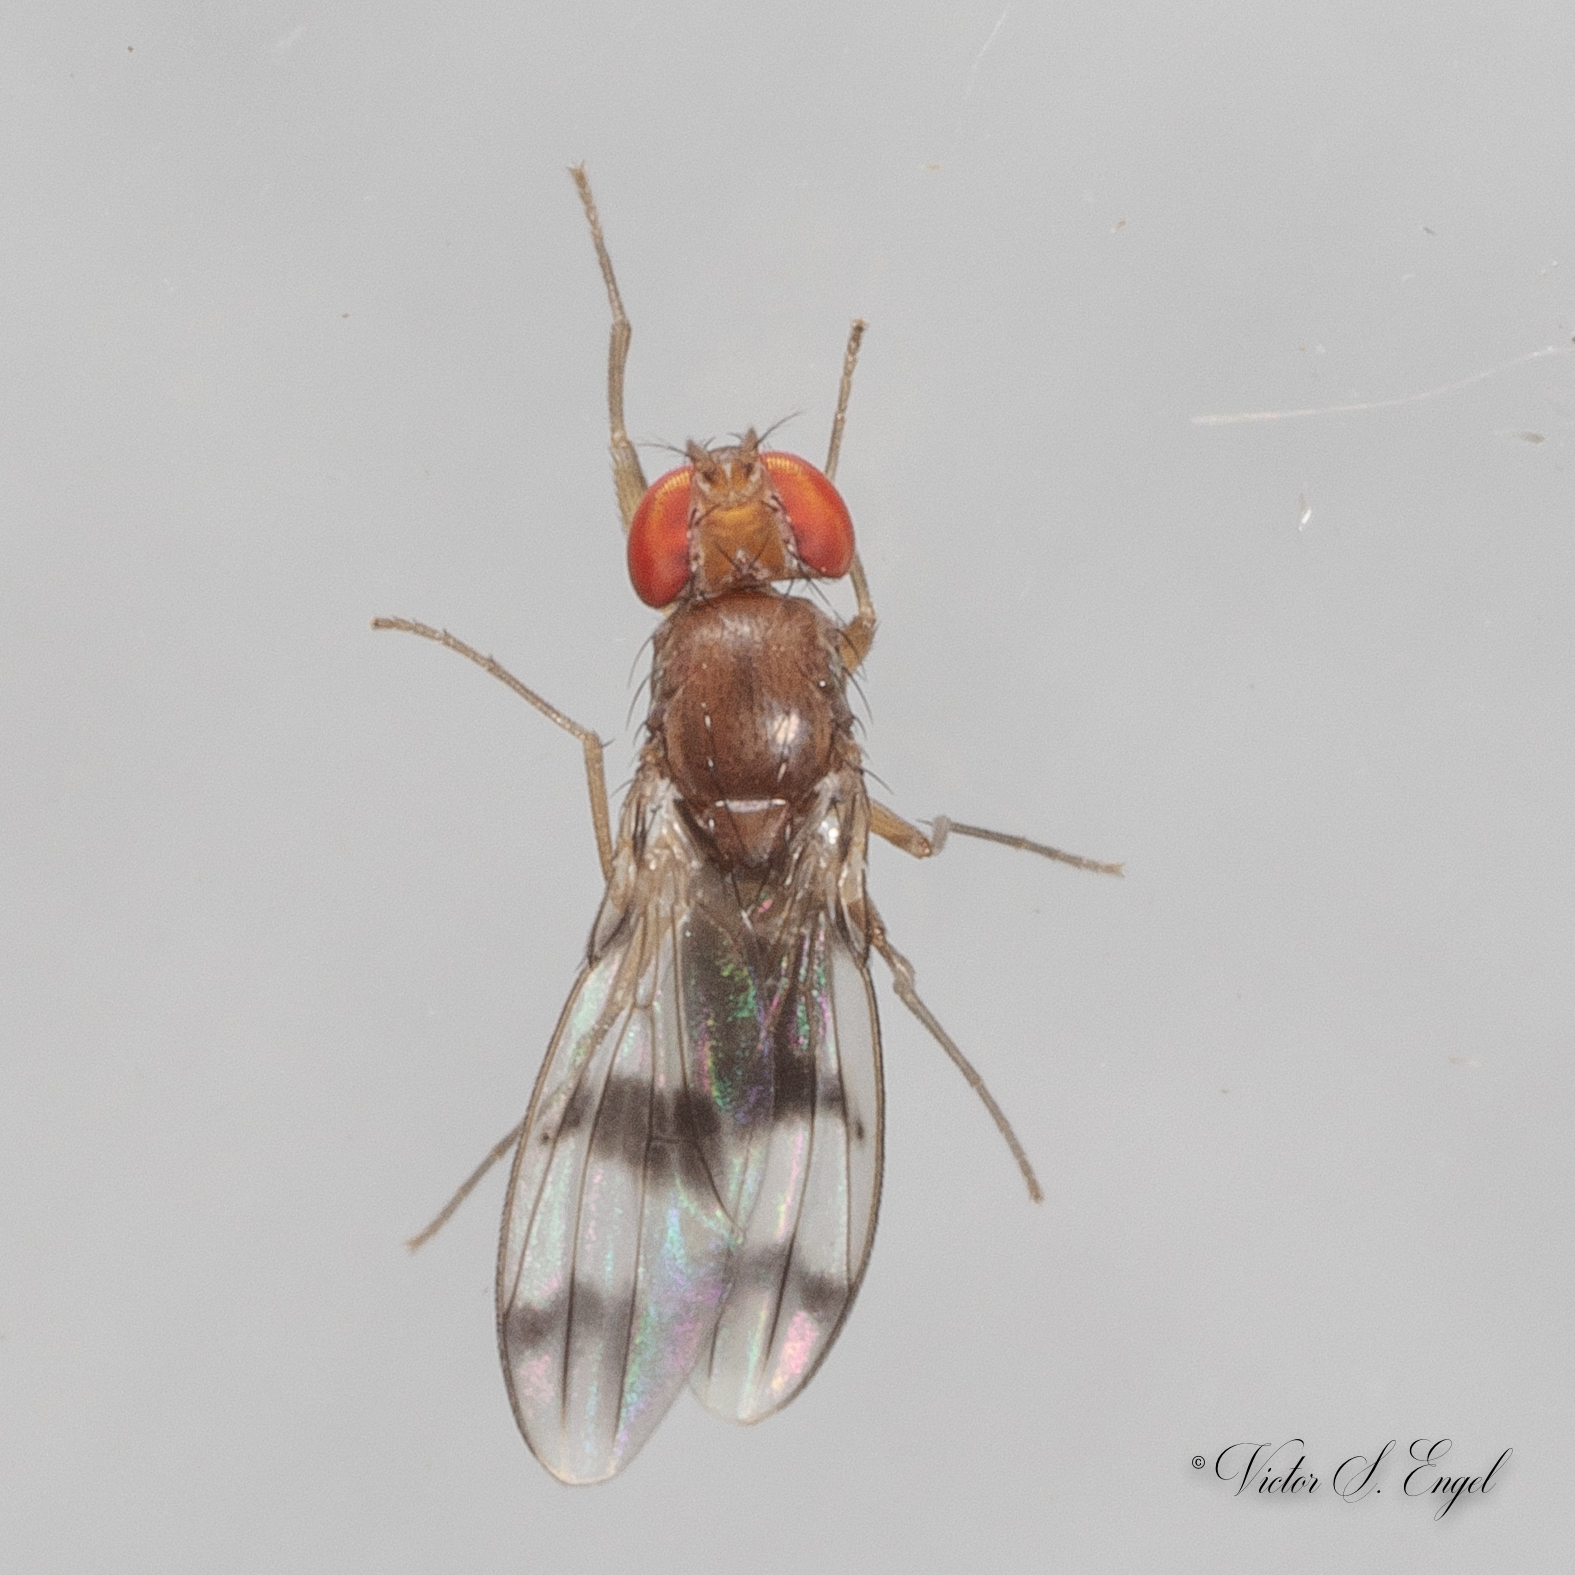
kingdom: Animalia
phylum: Arthropoda
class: Insecta
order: Diptera
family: Drosophilidae
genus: Chymomyza
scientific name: Chymomyza amoena
